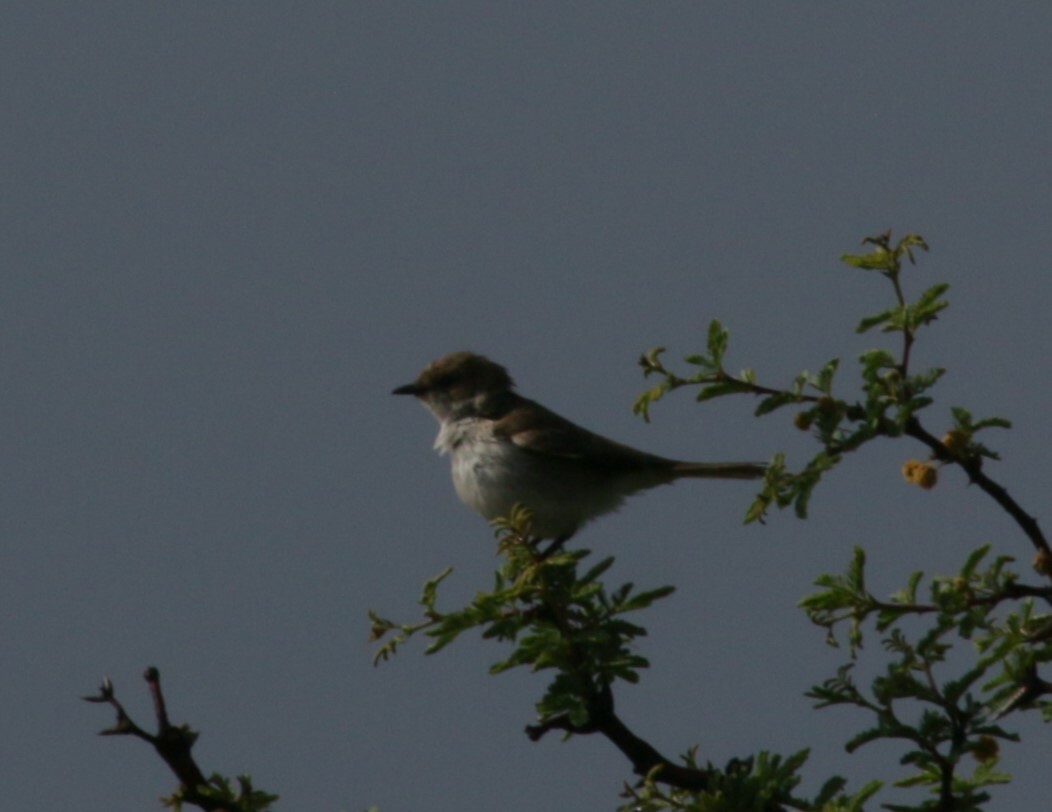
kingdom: Animalia
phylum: Chordata
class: Aves
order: Passeriformes
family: Muscicapidae
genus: Bradornis
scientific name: Bradornis mariquensis
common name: Marico flycatcher
